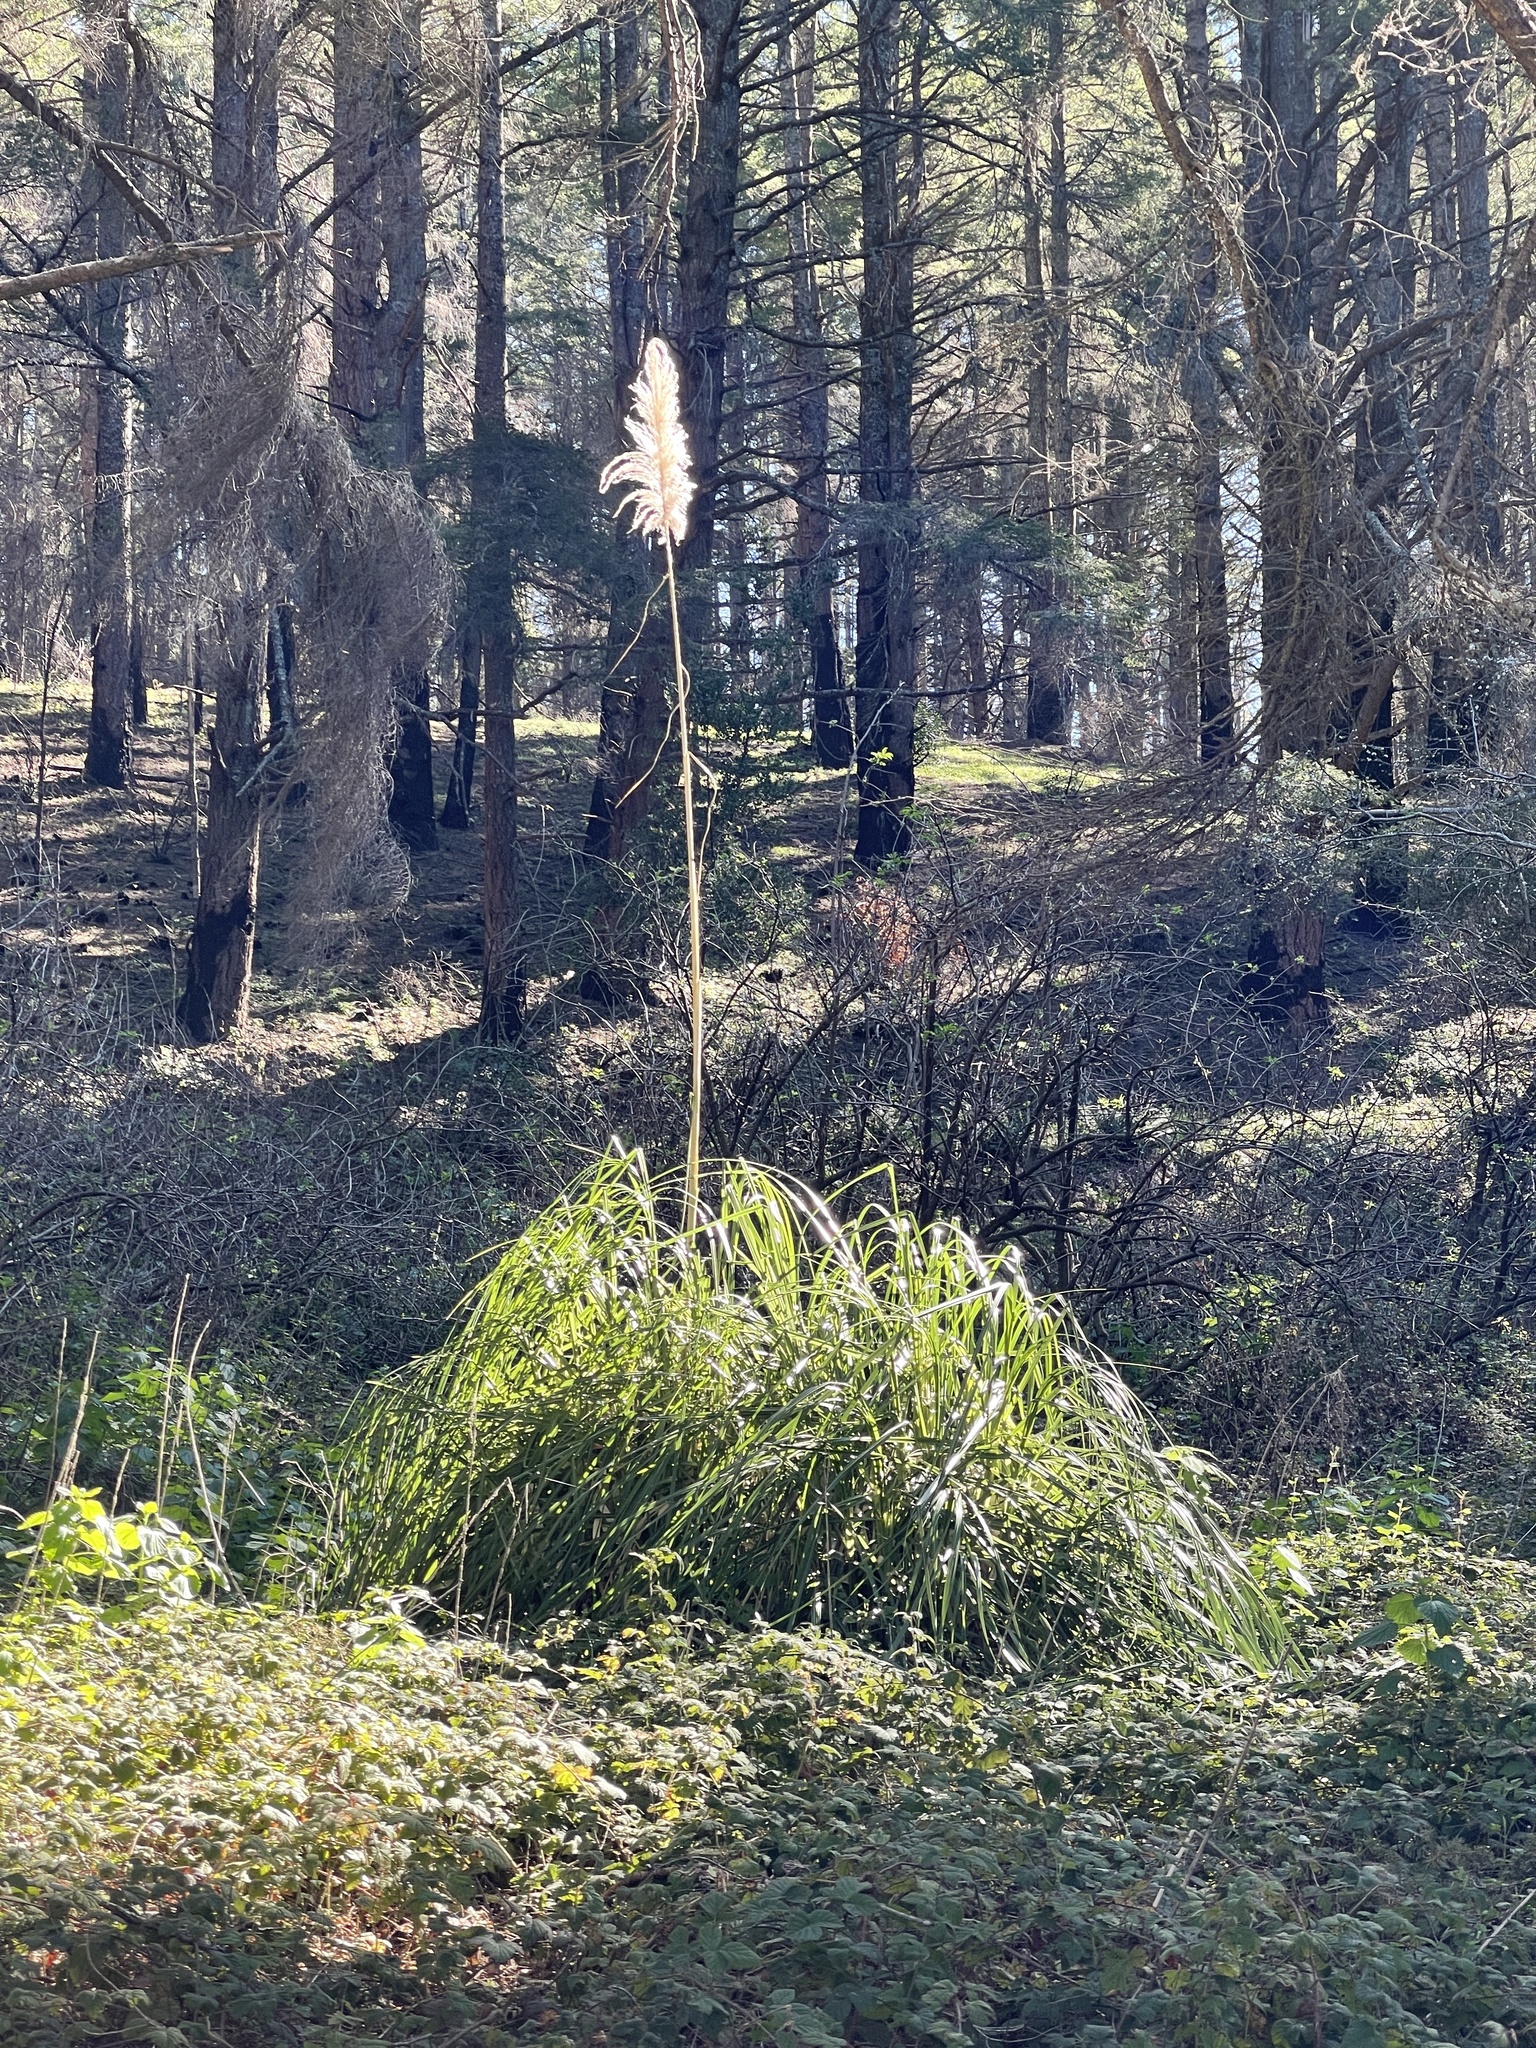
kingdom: Plantae
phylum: Tracheophyta
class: Liliopsida
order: Poales
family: Poaceae
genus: Cortaderia
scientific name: Cortaderia jubata
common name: Purple pampas grass
